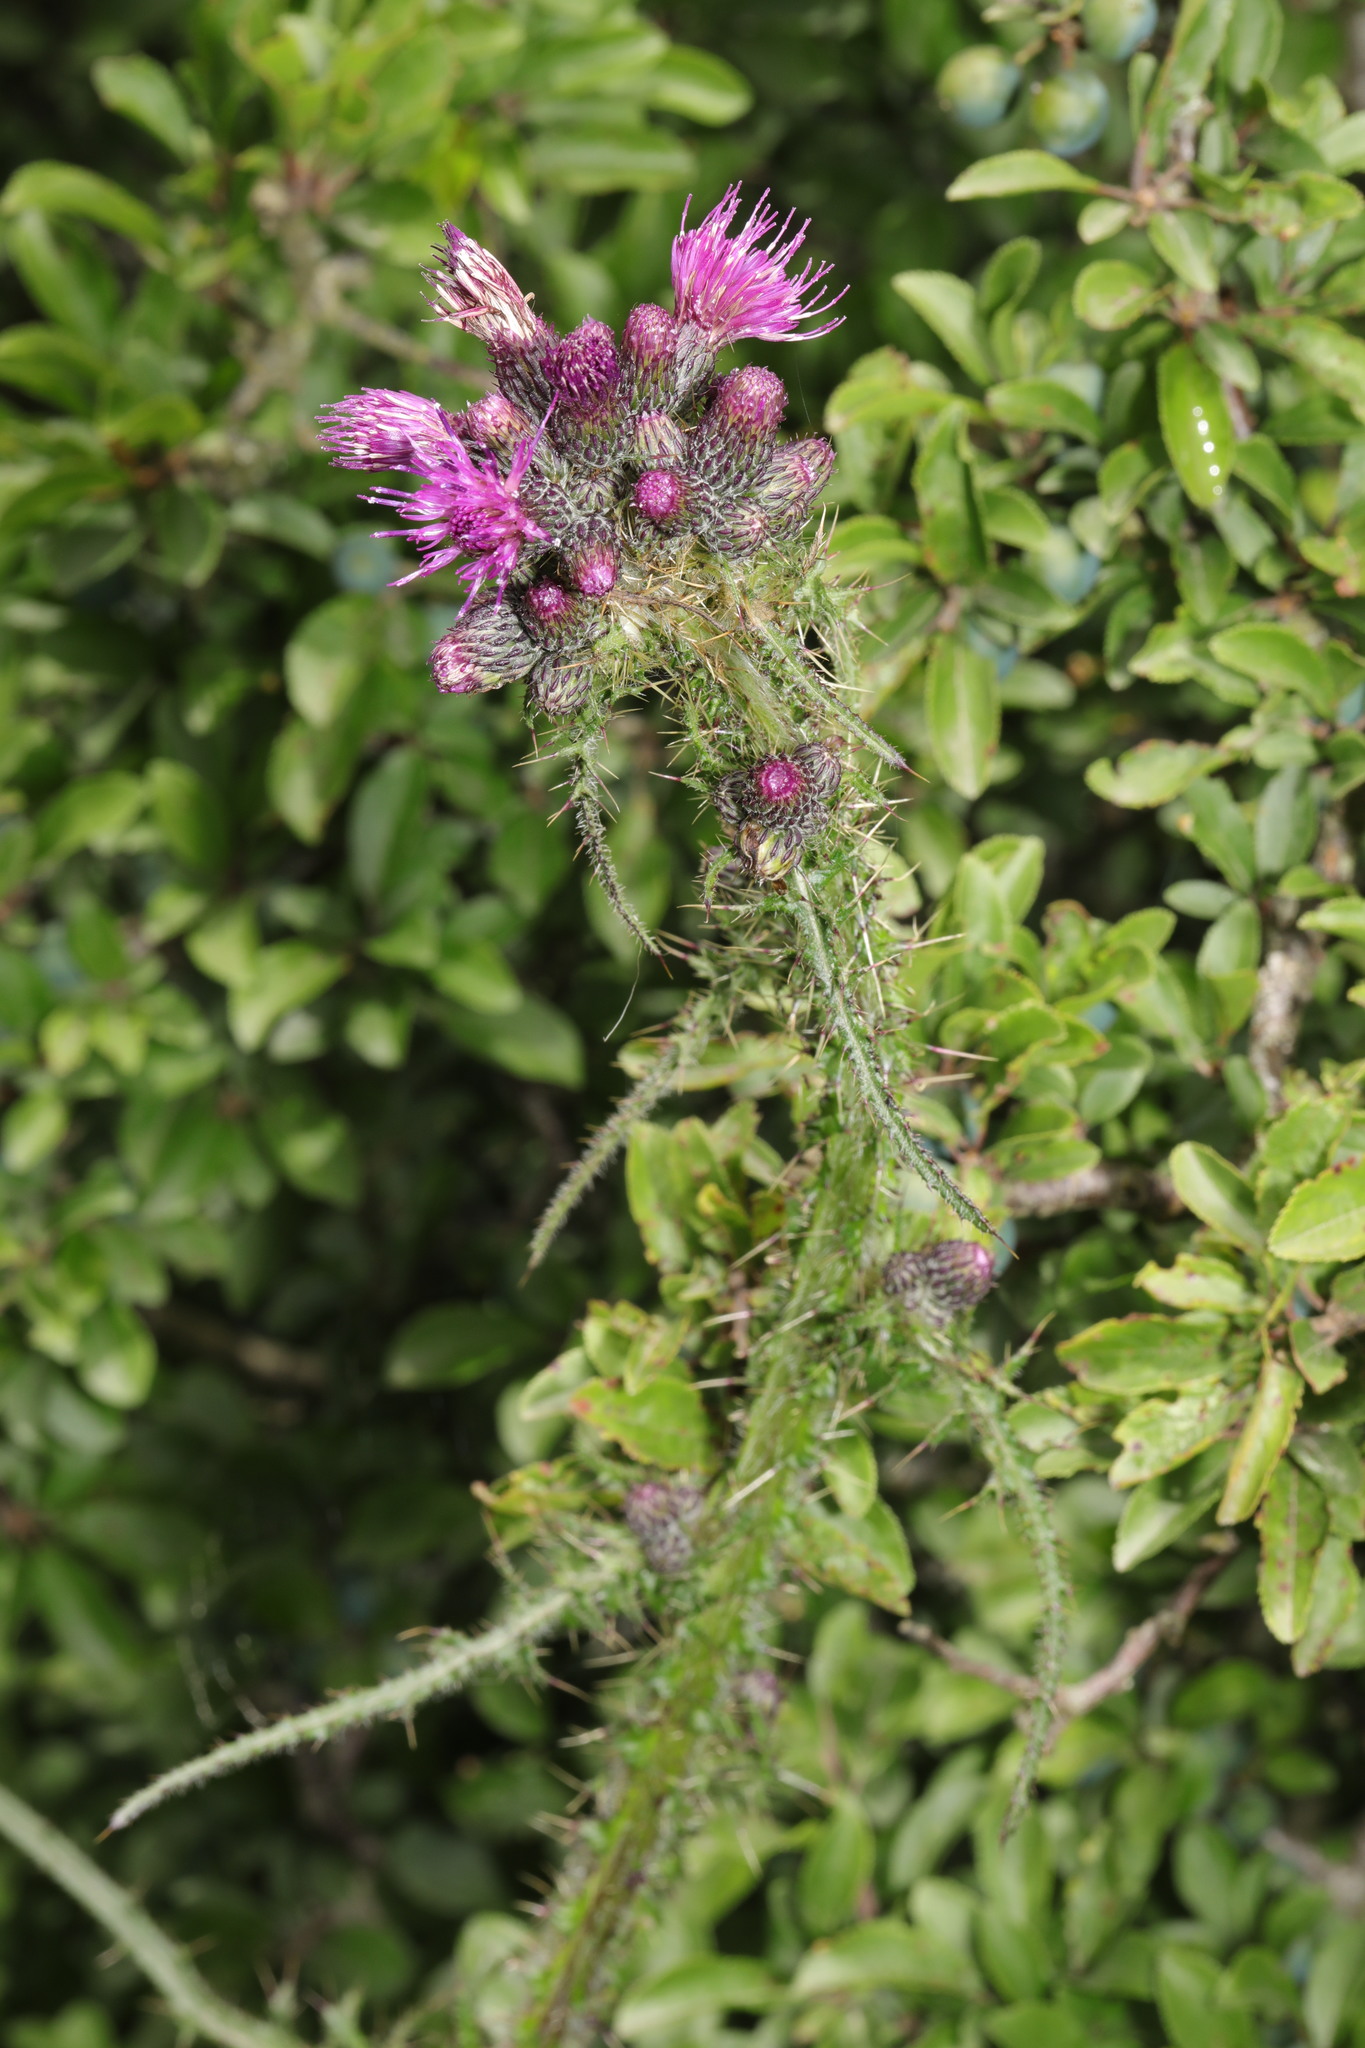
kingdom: Plantae
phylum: Tracheophyta
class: Magnoliopsida
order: Asterales
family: Asteraceae
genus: Cirsium
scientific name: Cirsium palustre
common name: Marsh thistle
